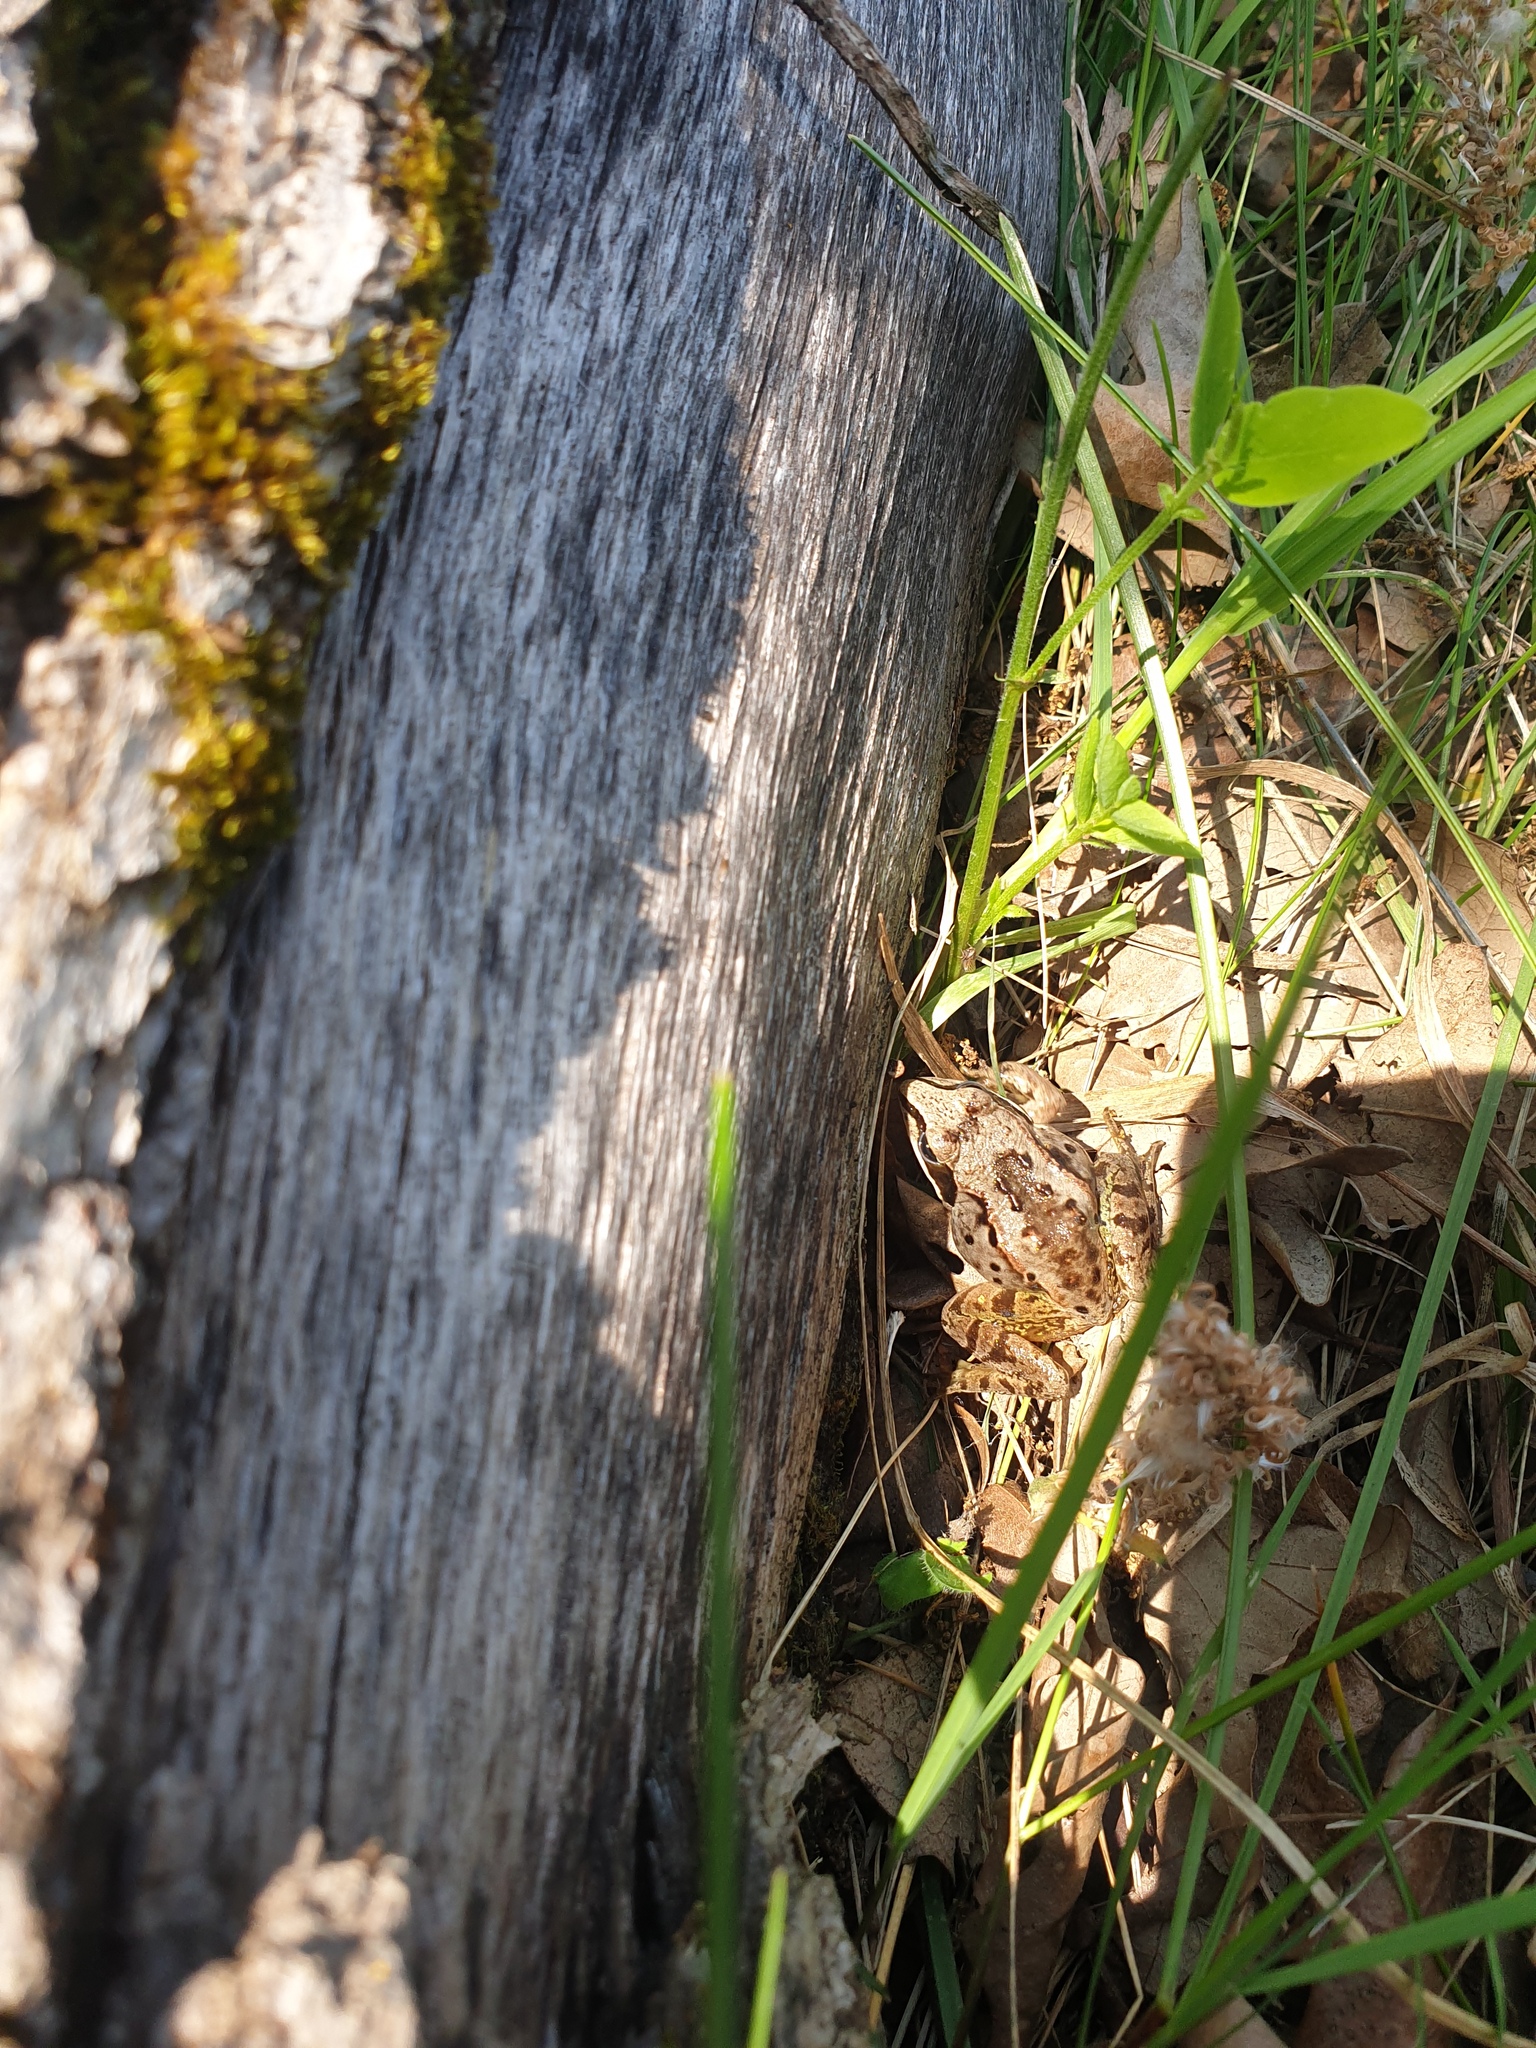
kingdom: Animalia
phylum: Chordata
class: Amphibia
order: Anura
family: Ranidae
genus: Lithobates
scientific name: Lithobates sylvaticus
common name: Wood frog
